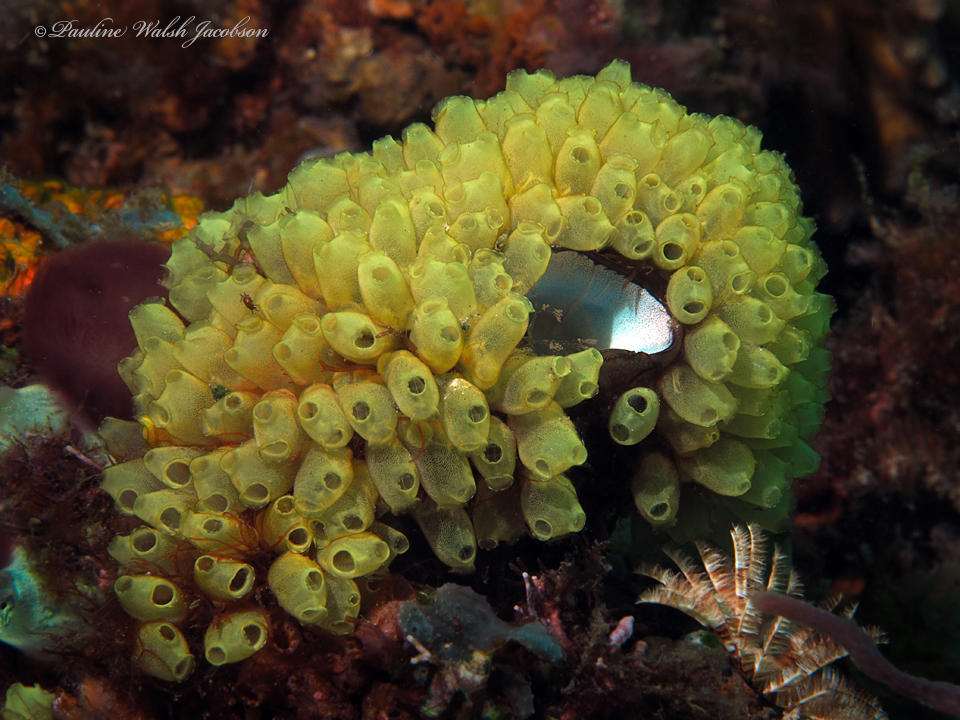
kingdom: Animalia
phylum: Chordata
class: Ascidiacea
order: Phlebobranchia
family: Perophoridae
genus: Perophora
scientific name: Perophora modificata
